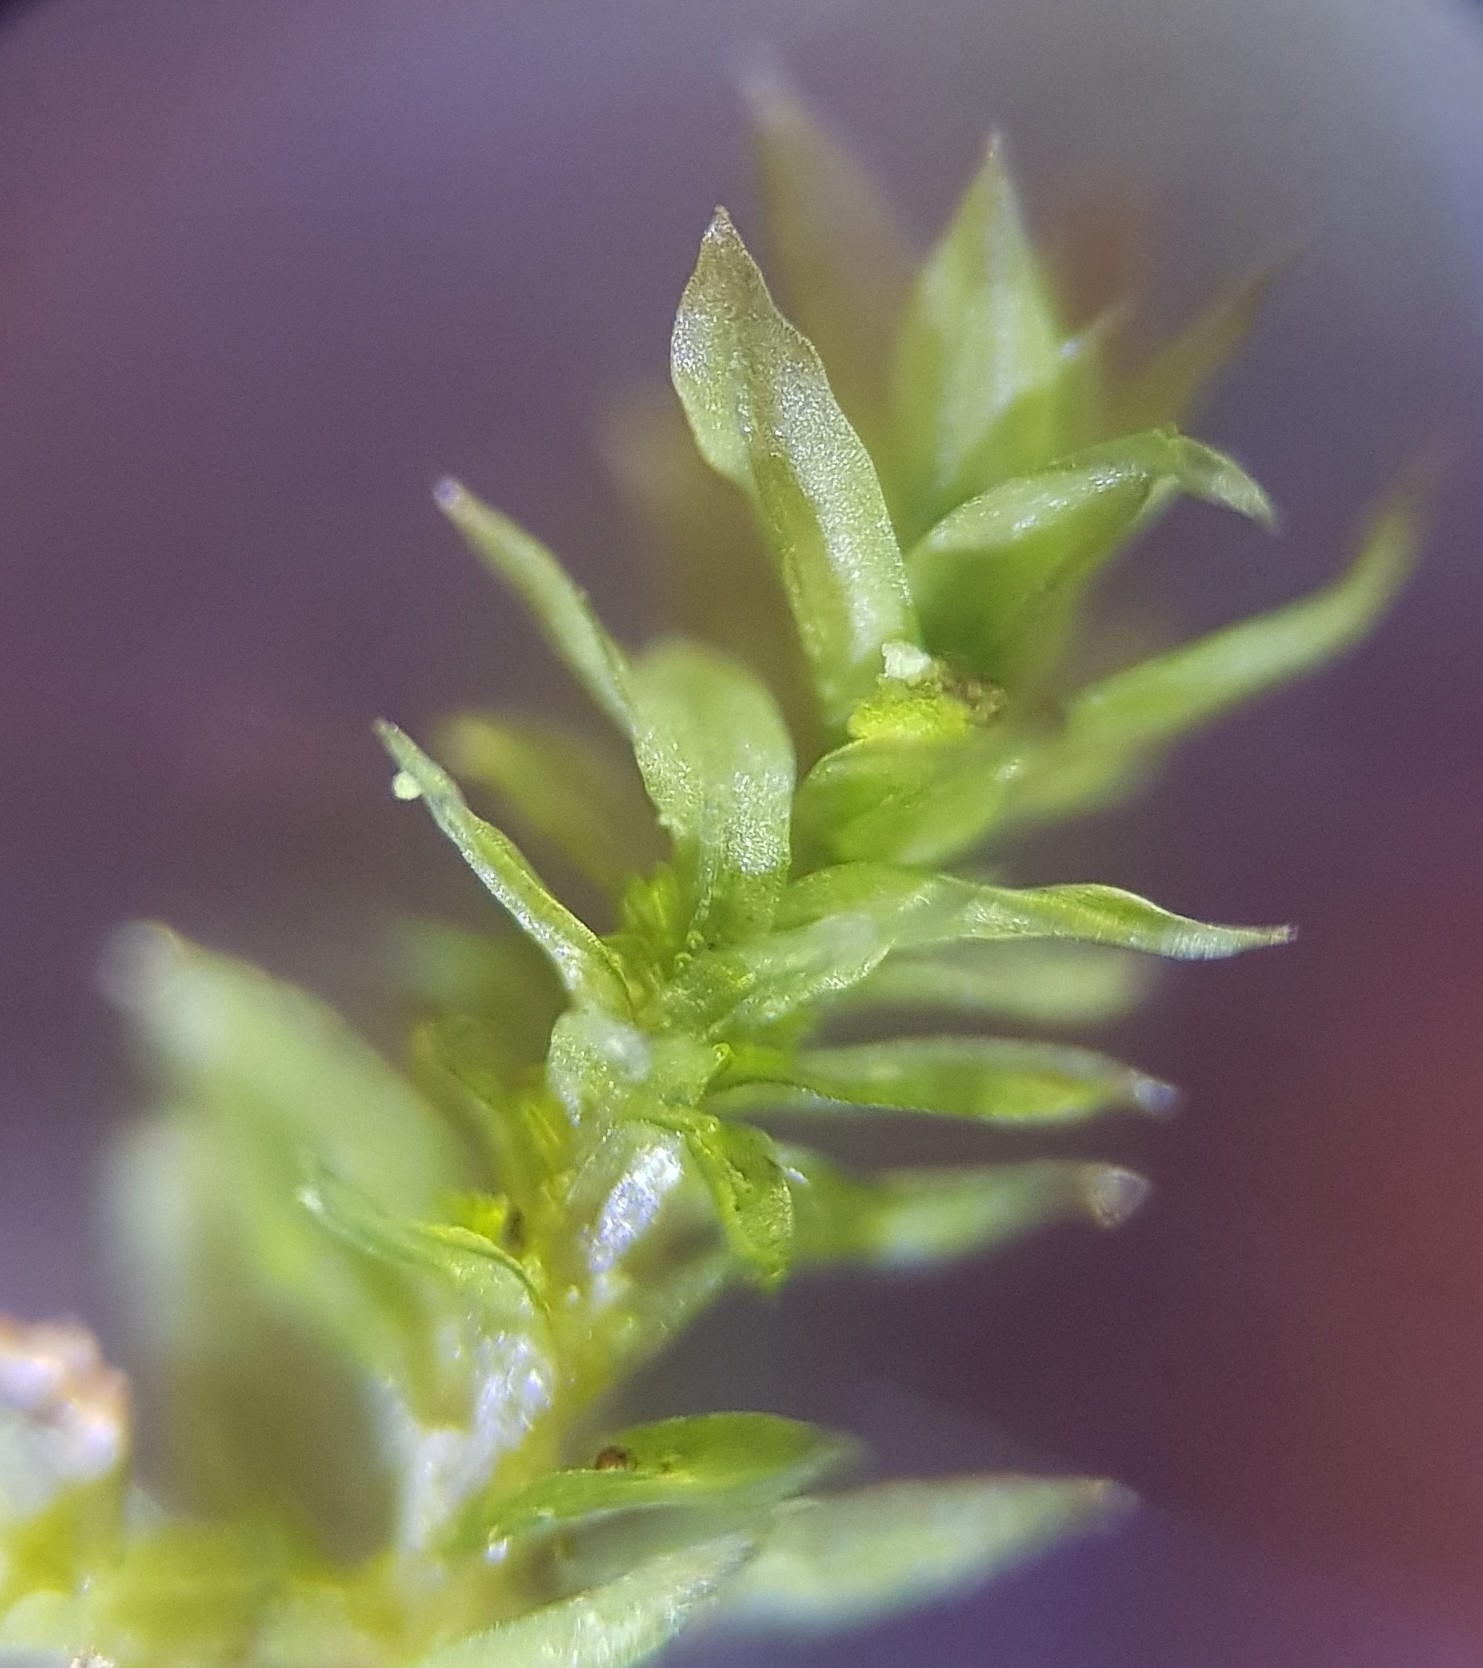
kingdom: Plantae
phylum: Bryophyta
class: Bryopsida
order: Orthotrichales
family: Orthotrichaceae
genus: Zygodon
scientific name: Zygodon conoideus
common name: Lesser yoke-moss
